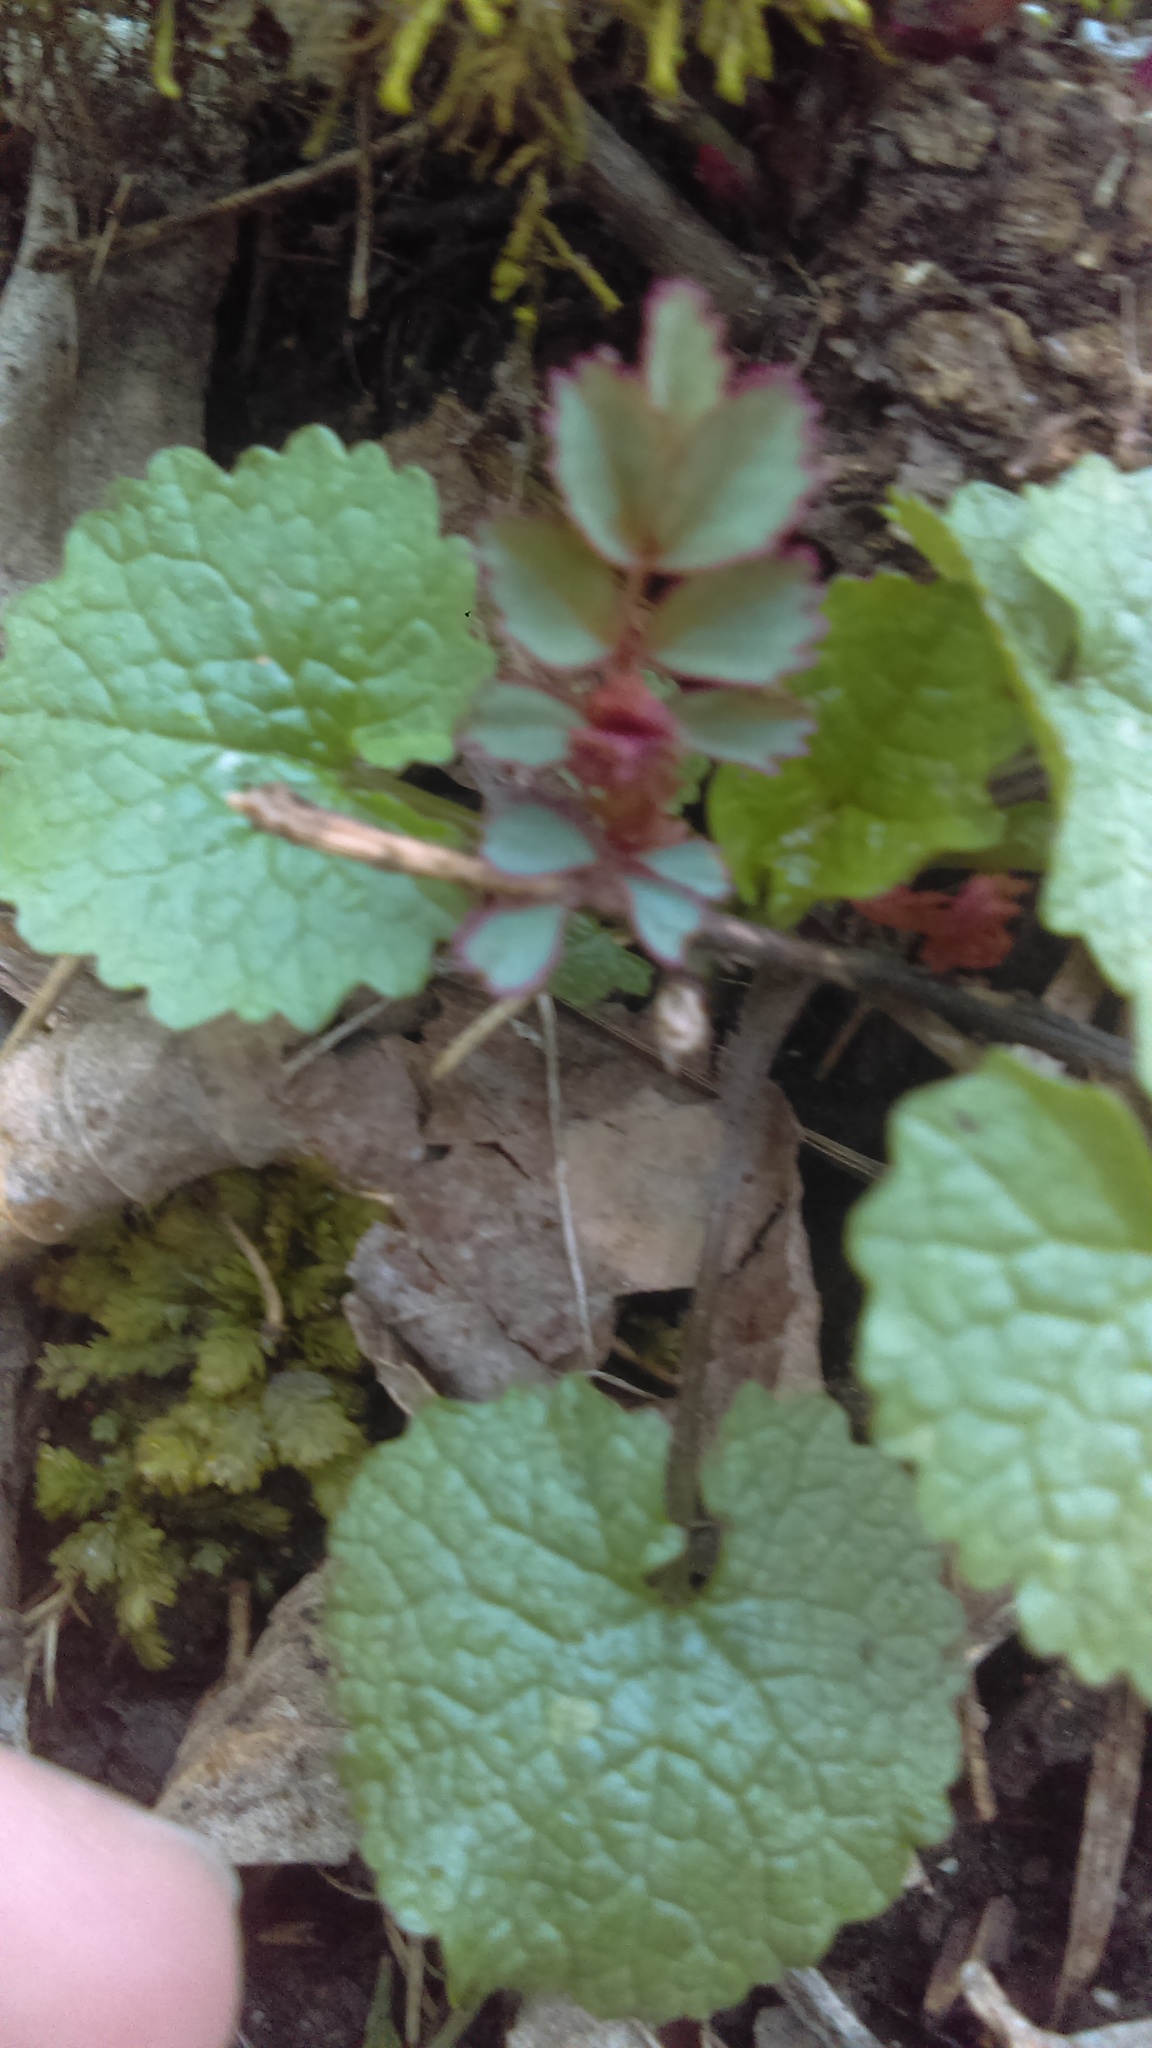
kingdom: Plantae
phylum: Tracheophyta
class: Magnoliopsida
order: Brassicales
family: Brassicaceae
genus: Alliaria
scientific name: Alliaria petiolata
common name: Garlic mustard
